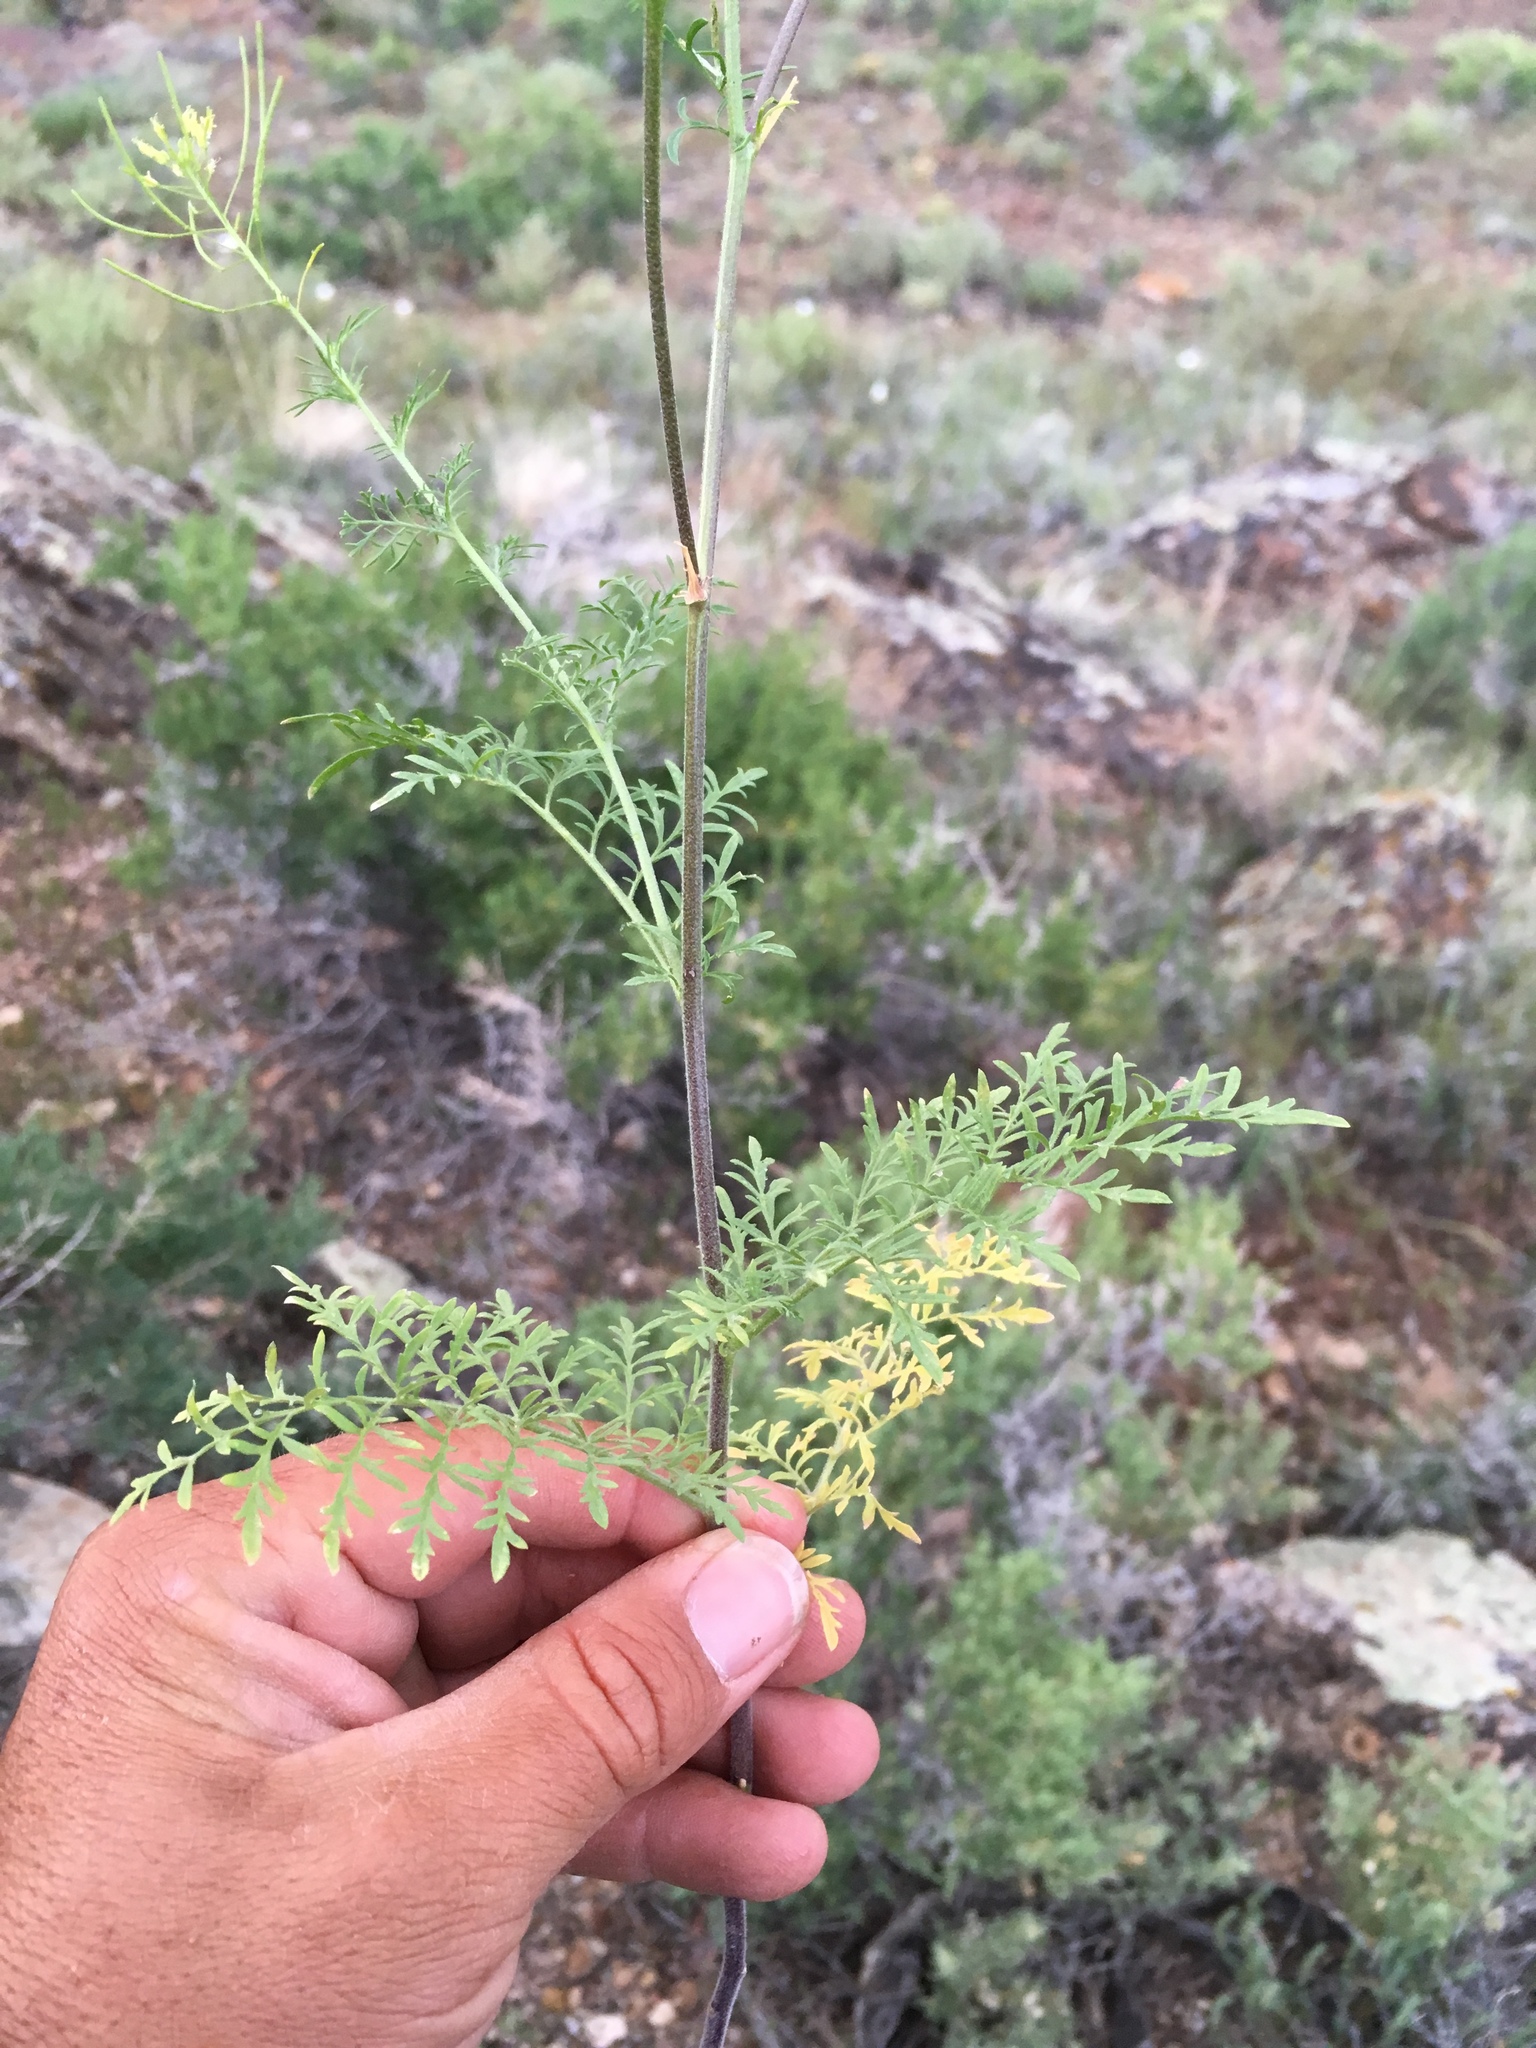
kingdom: Plantae
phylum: Tracheophyta
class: Magnoliopsida
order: Brassicales
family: Brassicaceae
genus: Descurainia
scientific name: Descurainia sophia
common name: Flixweed
